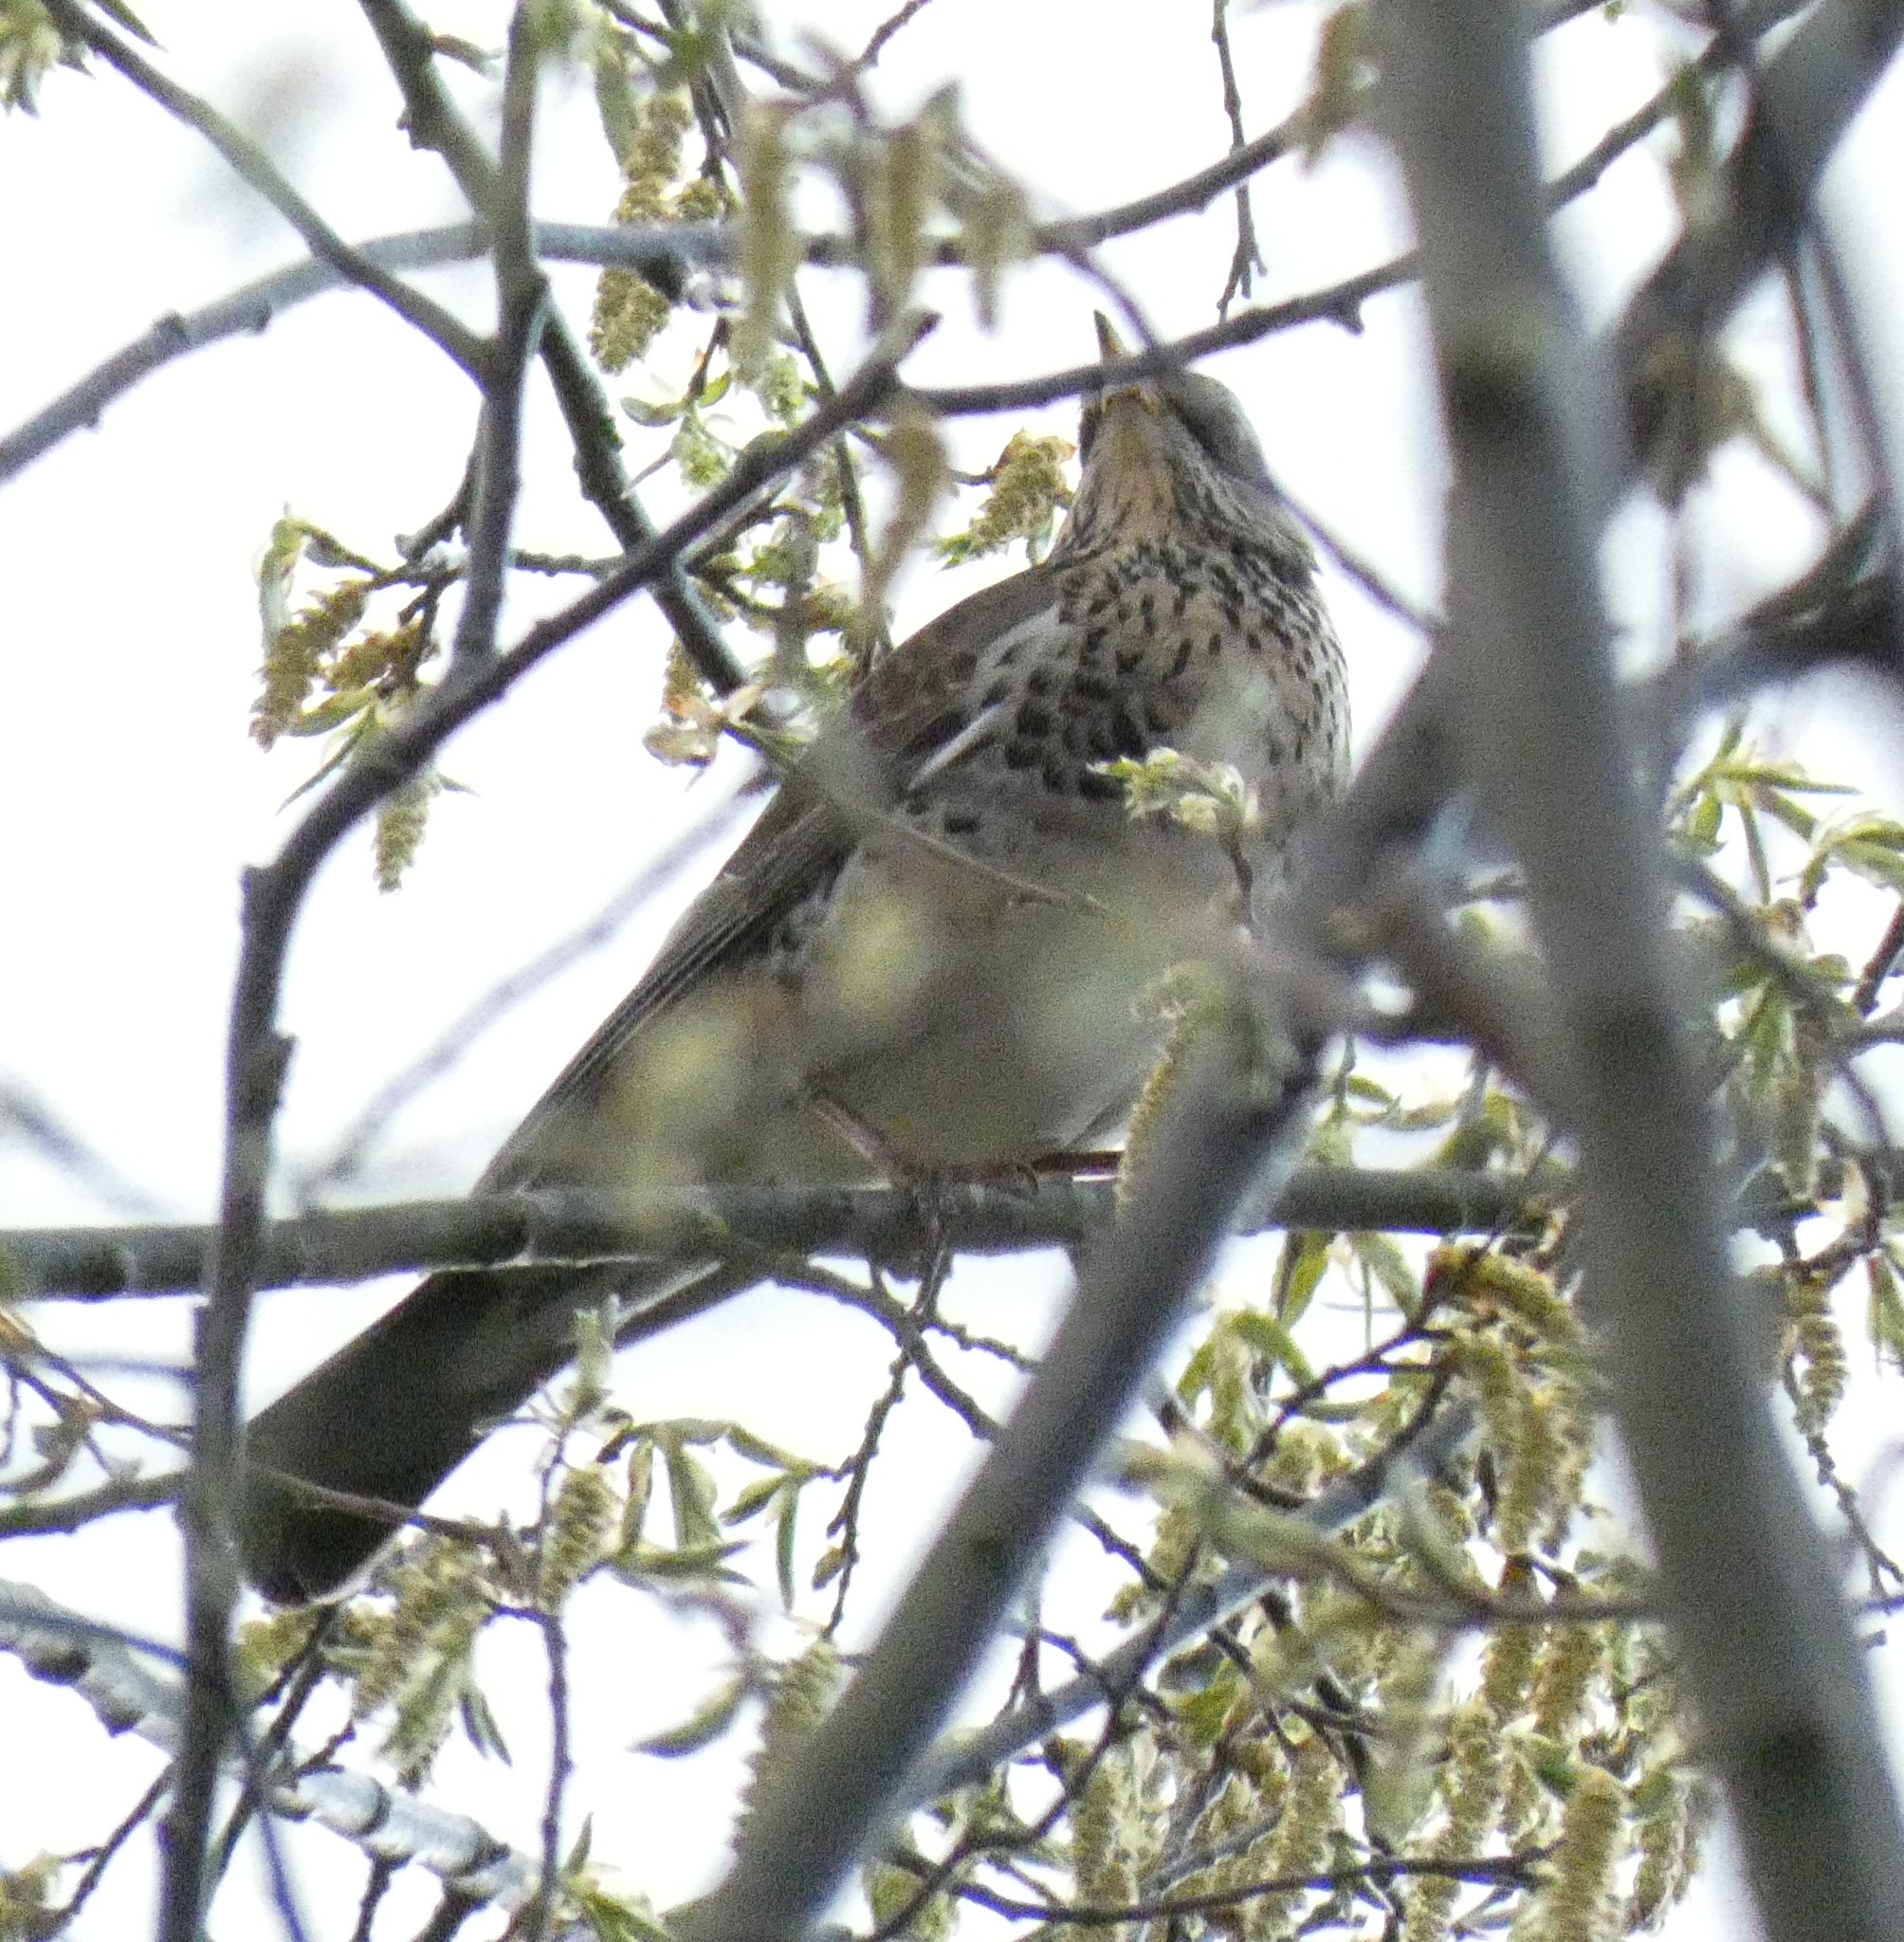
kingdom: Animalia
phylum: Chordata
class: Aves
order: Passeriformes
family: Turdidae
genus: Turdus
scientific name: Turdus pilaris
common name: Fieldfare
